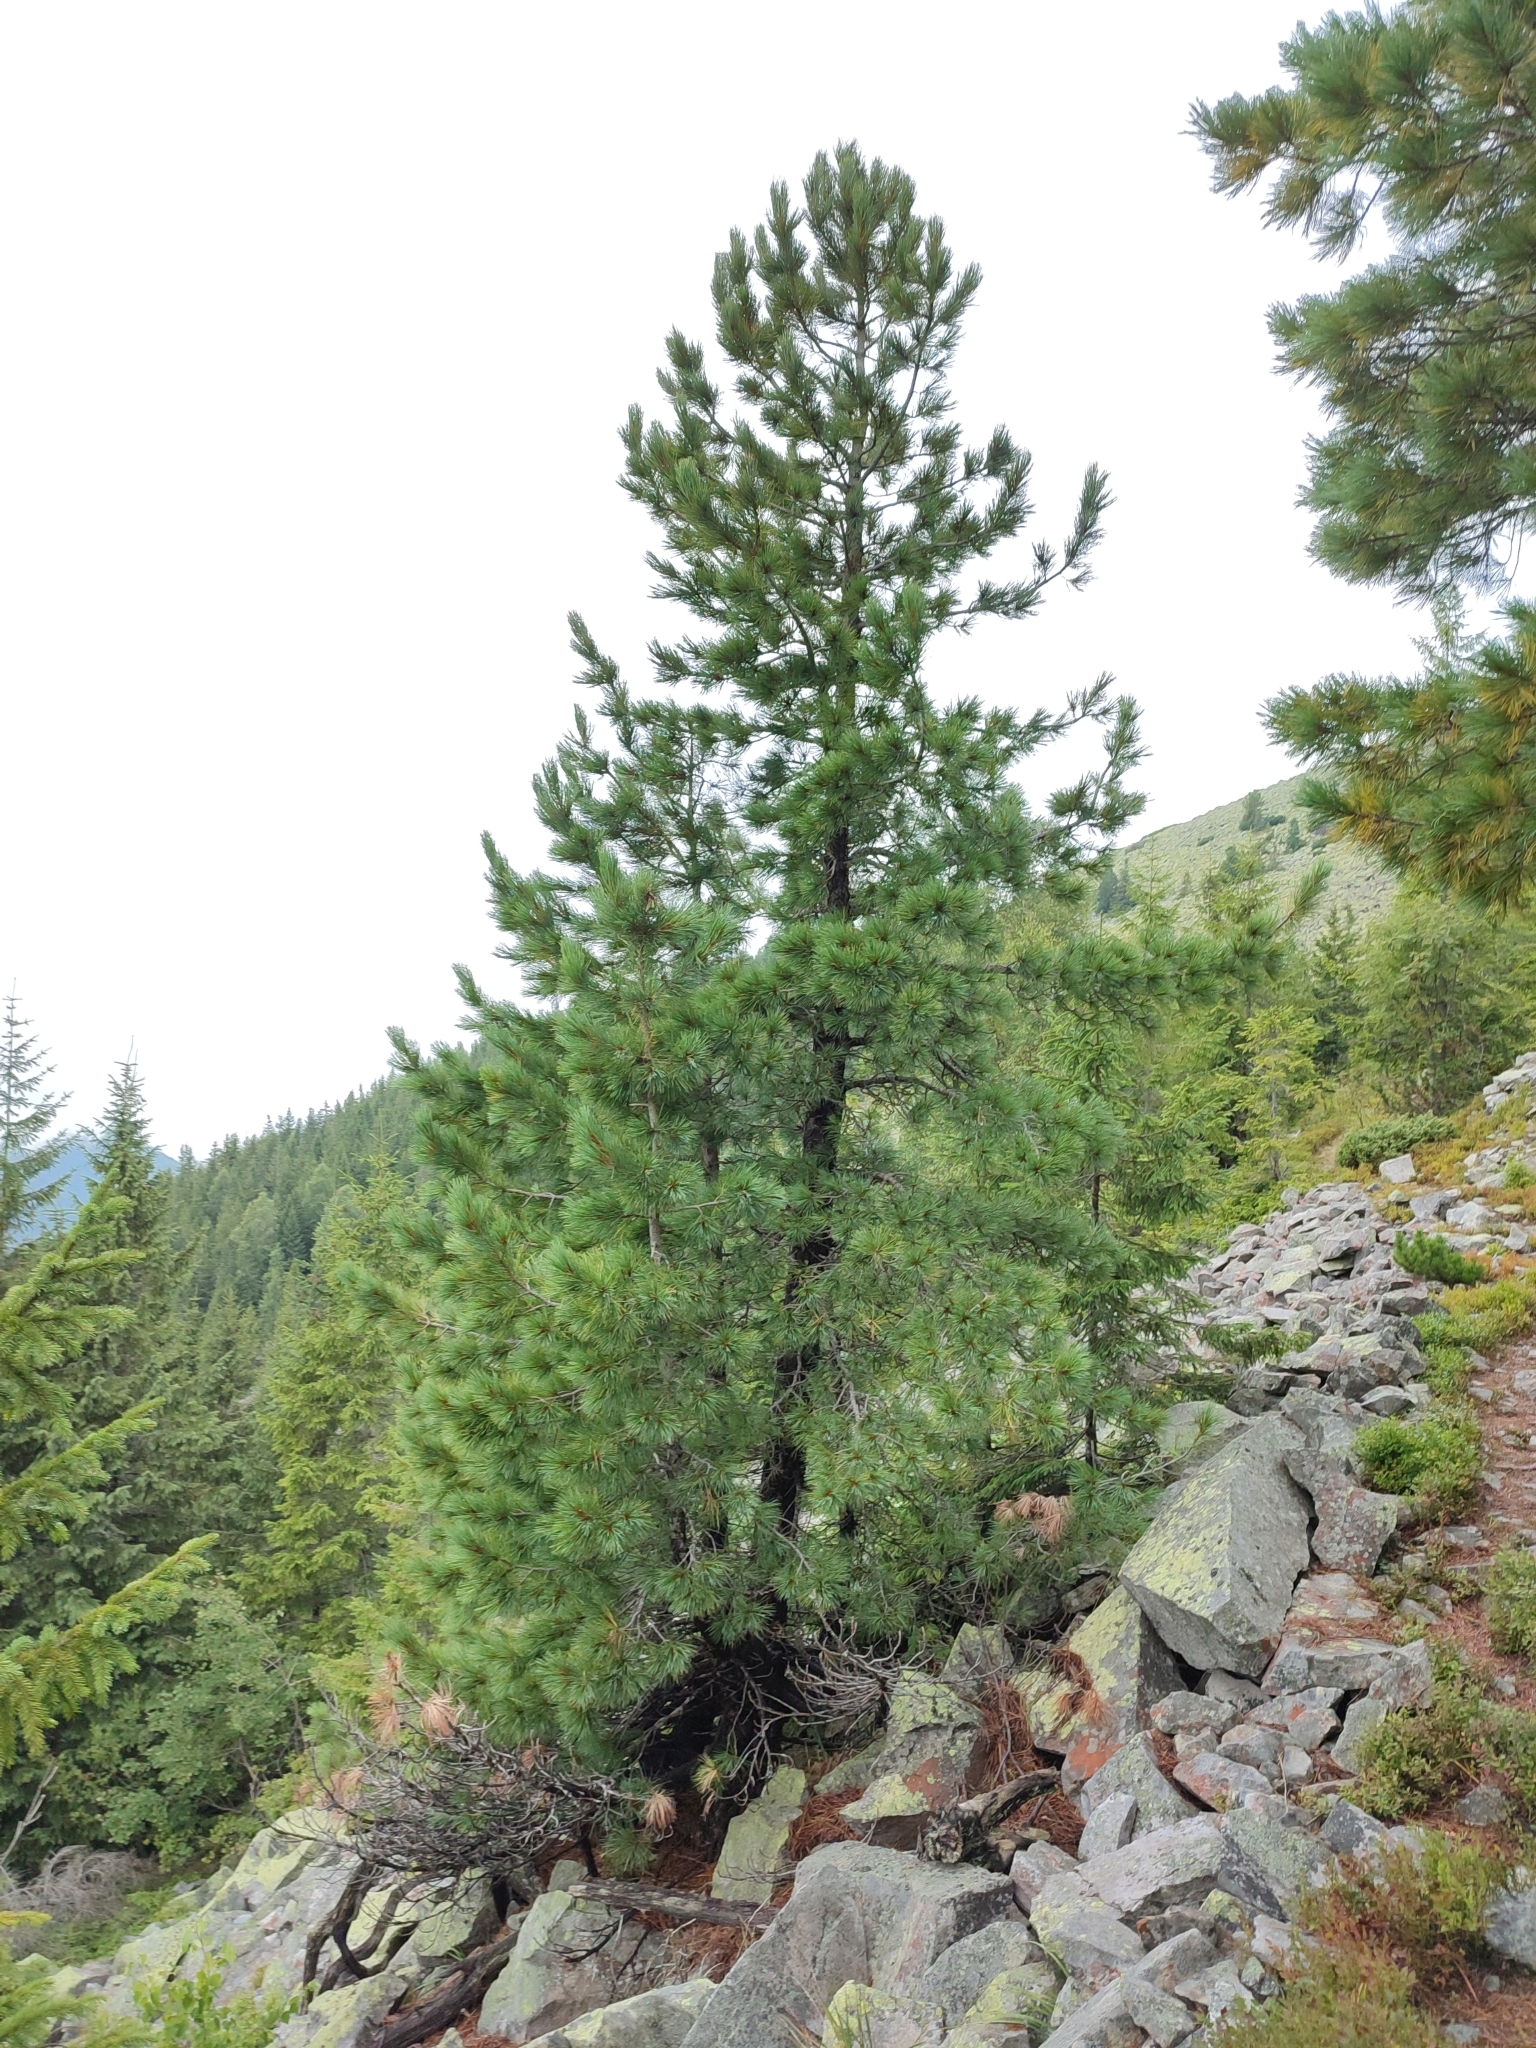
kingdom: Plantae
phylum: Tracheophyta
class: Pinopsida
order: Pinales
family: Pinaceae
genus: Pinus
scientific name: Pinus cembra
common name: Arolla pine
